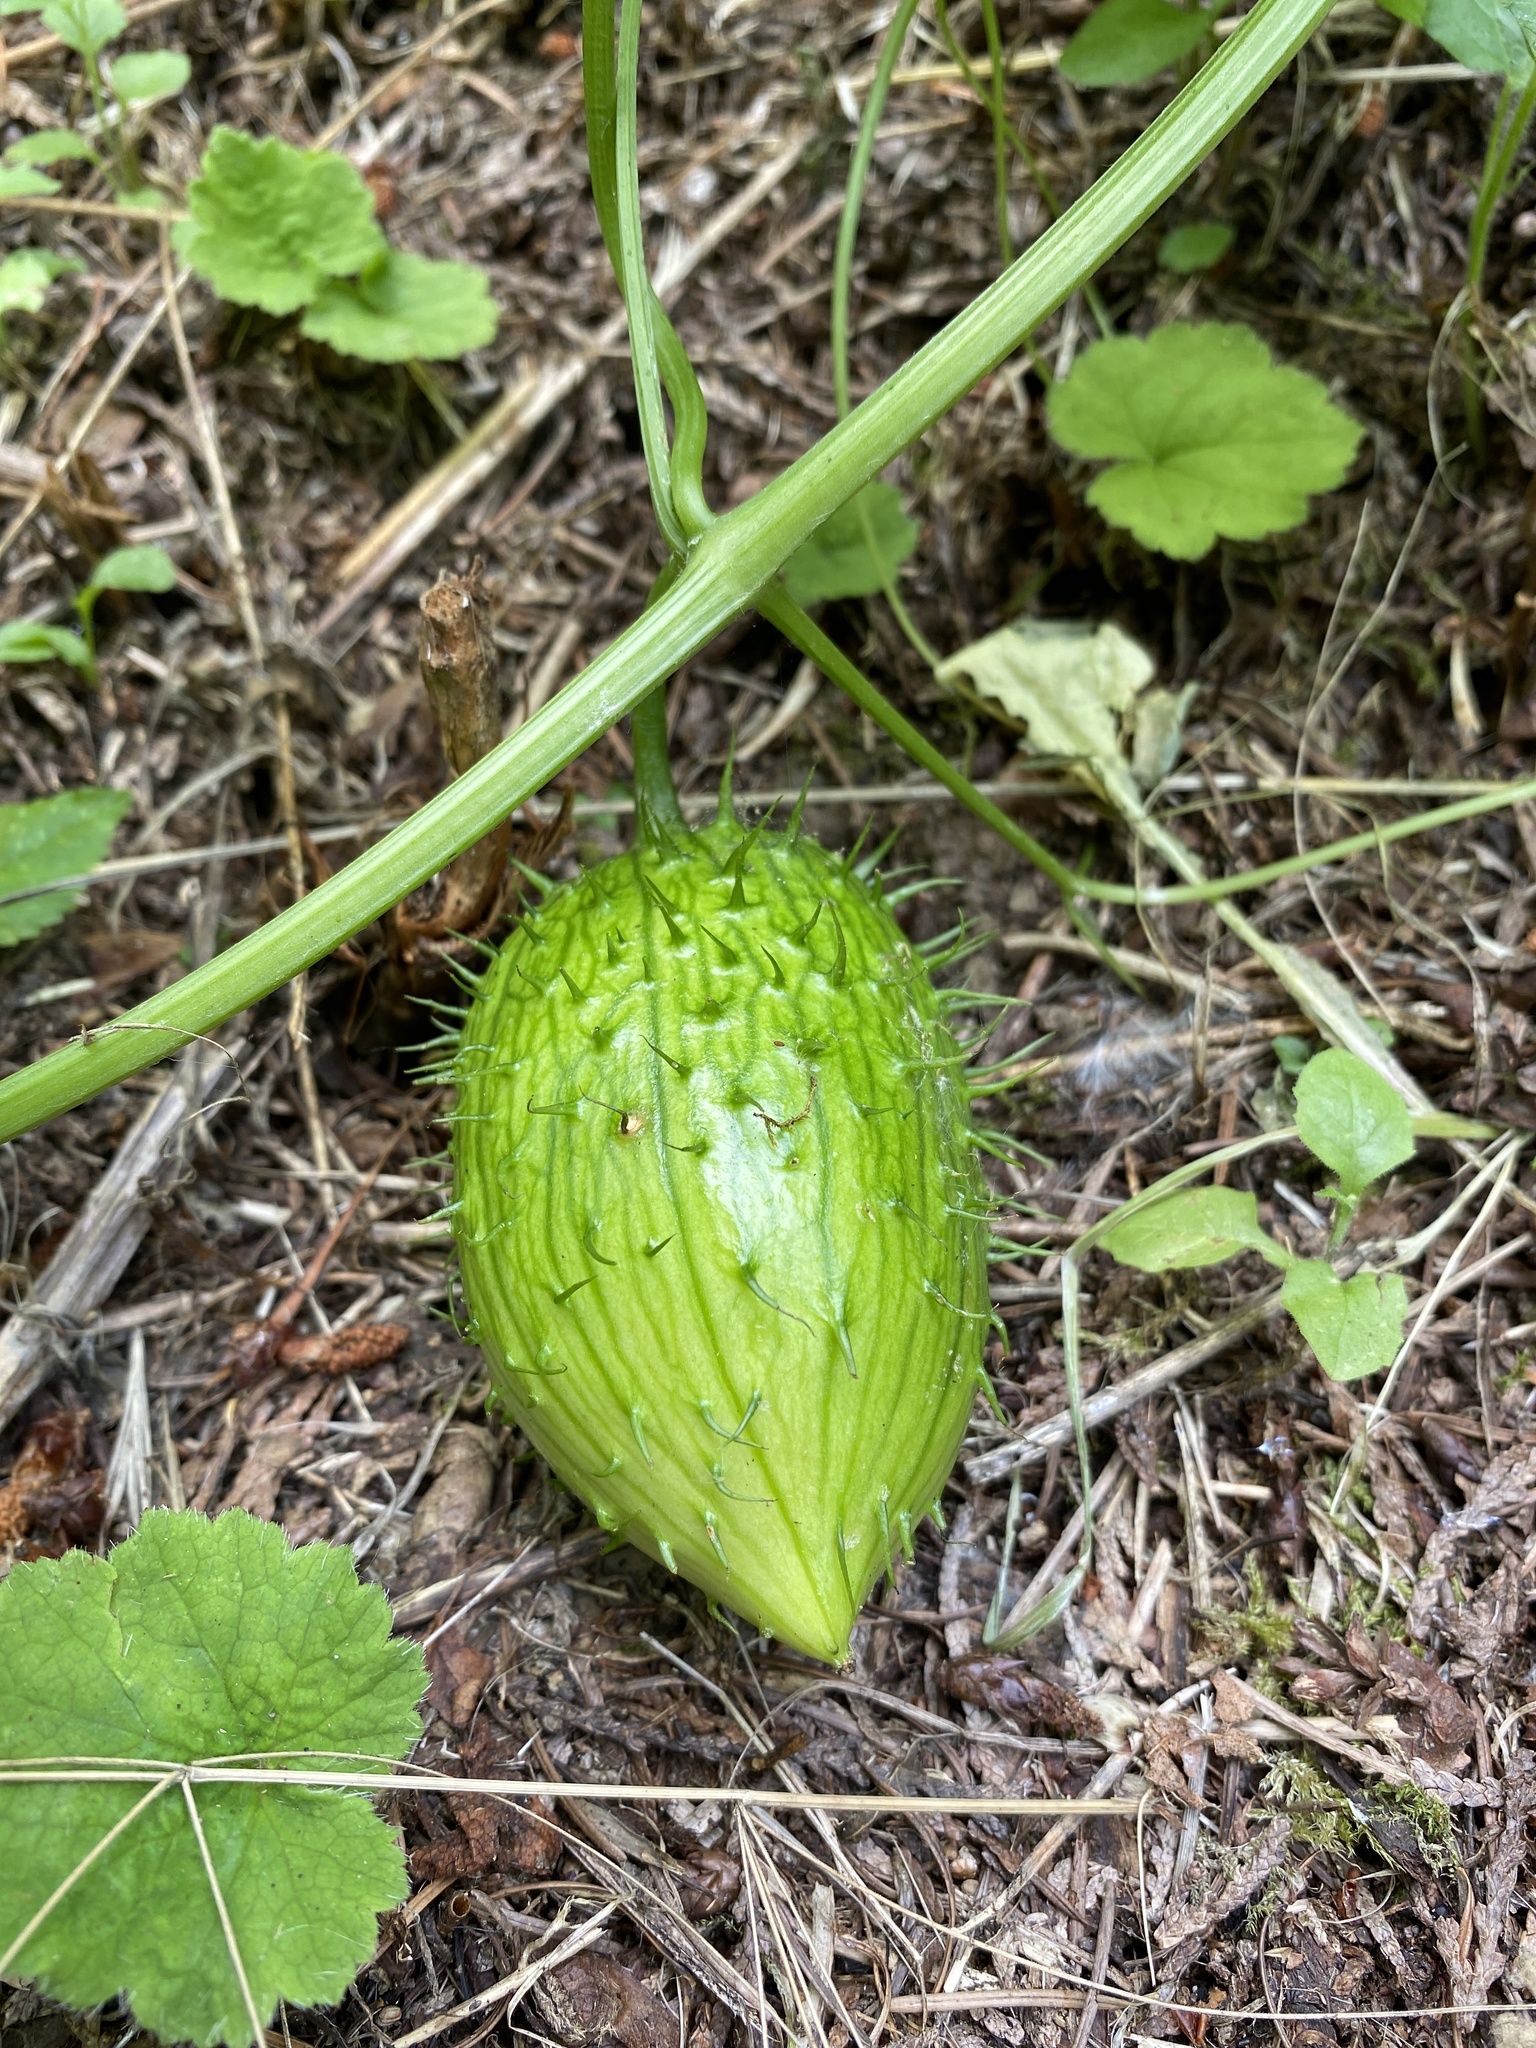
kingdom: Plantae
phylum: Tracheophyta
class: Magnoliopsida
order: Cucurbitales
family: Cucurbitaceae
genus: Marah
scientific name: Marah oregana
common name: Coastal manroot
